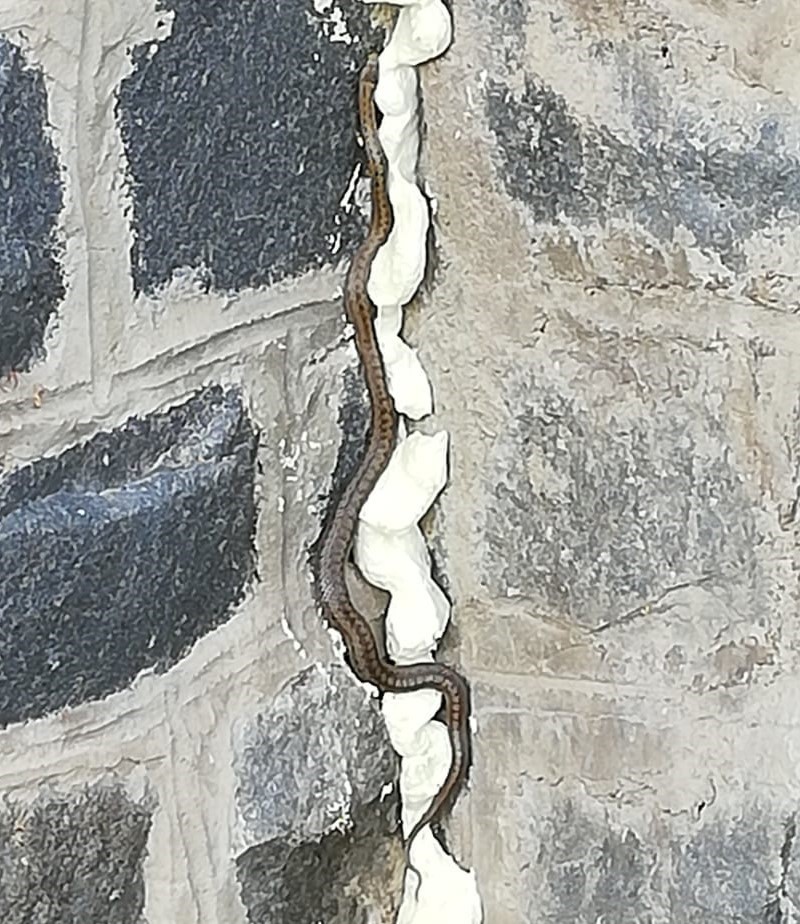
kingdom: Animalia
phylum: Chordata
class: Squamata
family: Colubridae
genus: Coronella
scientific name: Coronella austriaca
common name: Smooth snake
